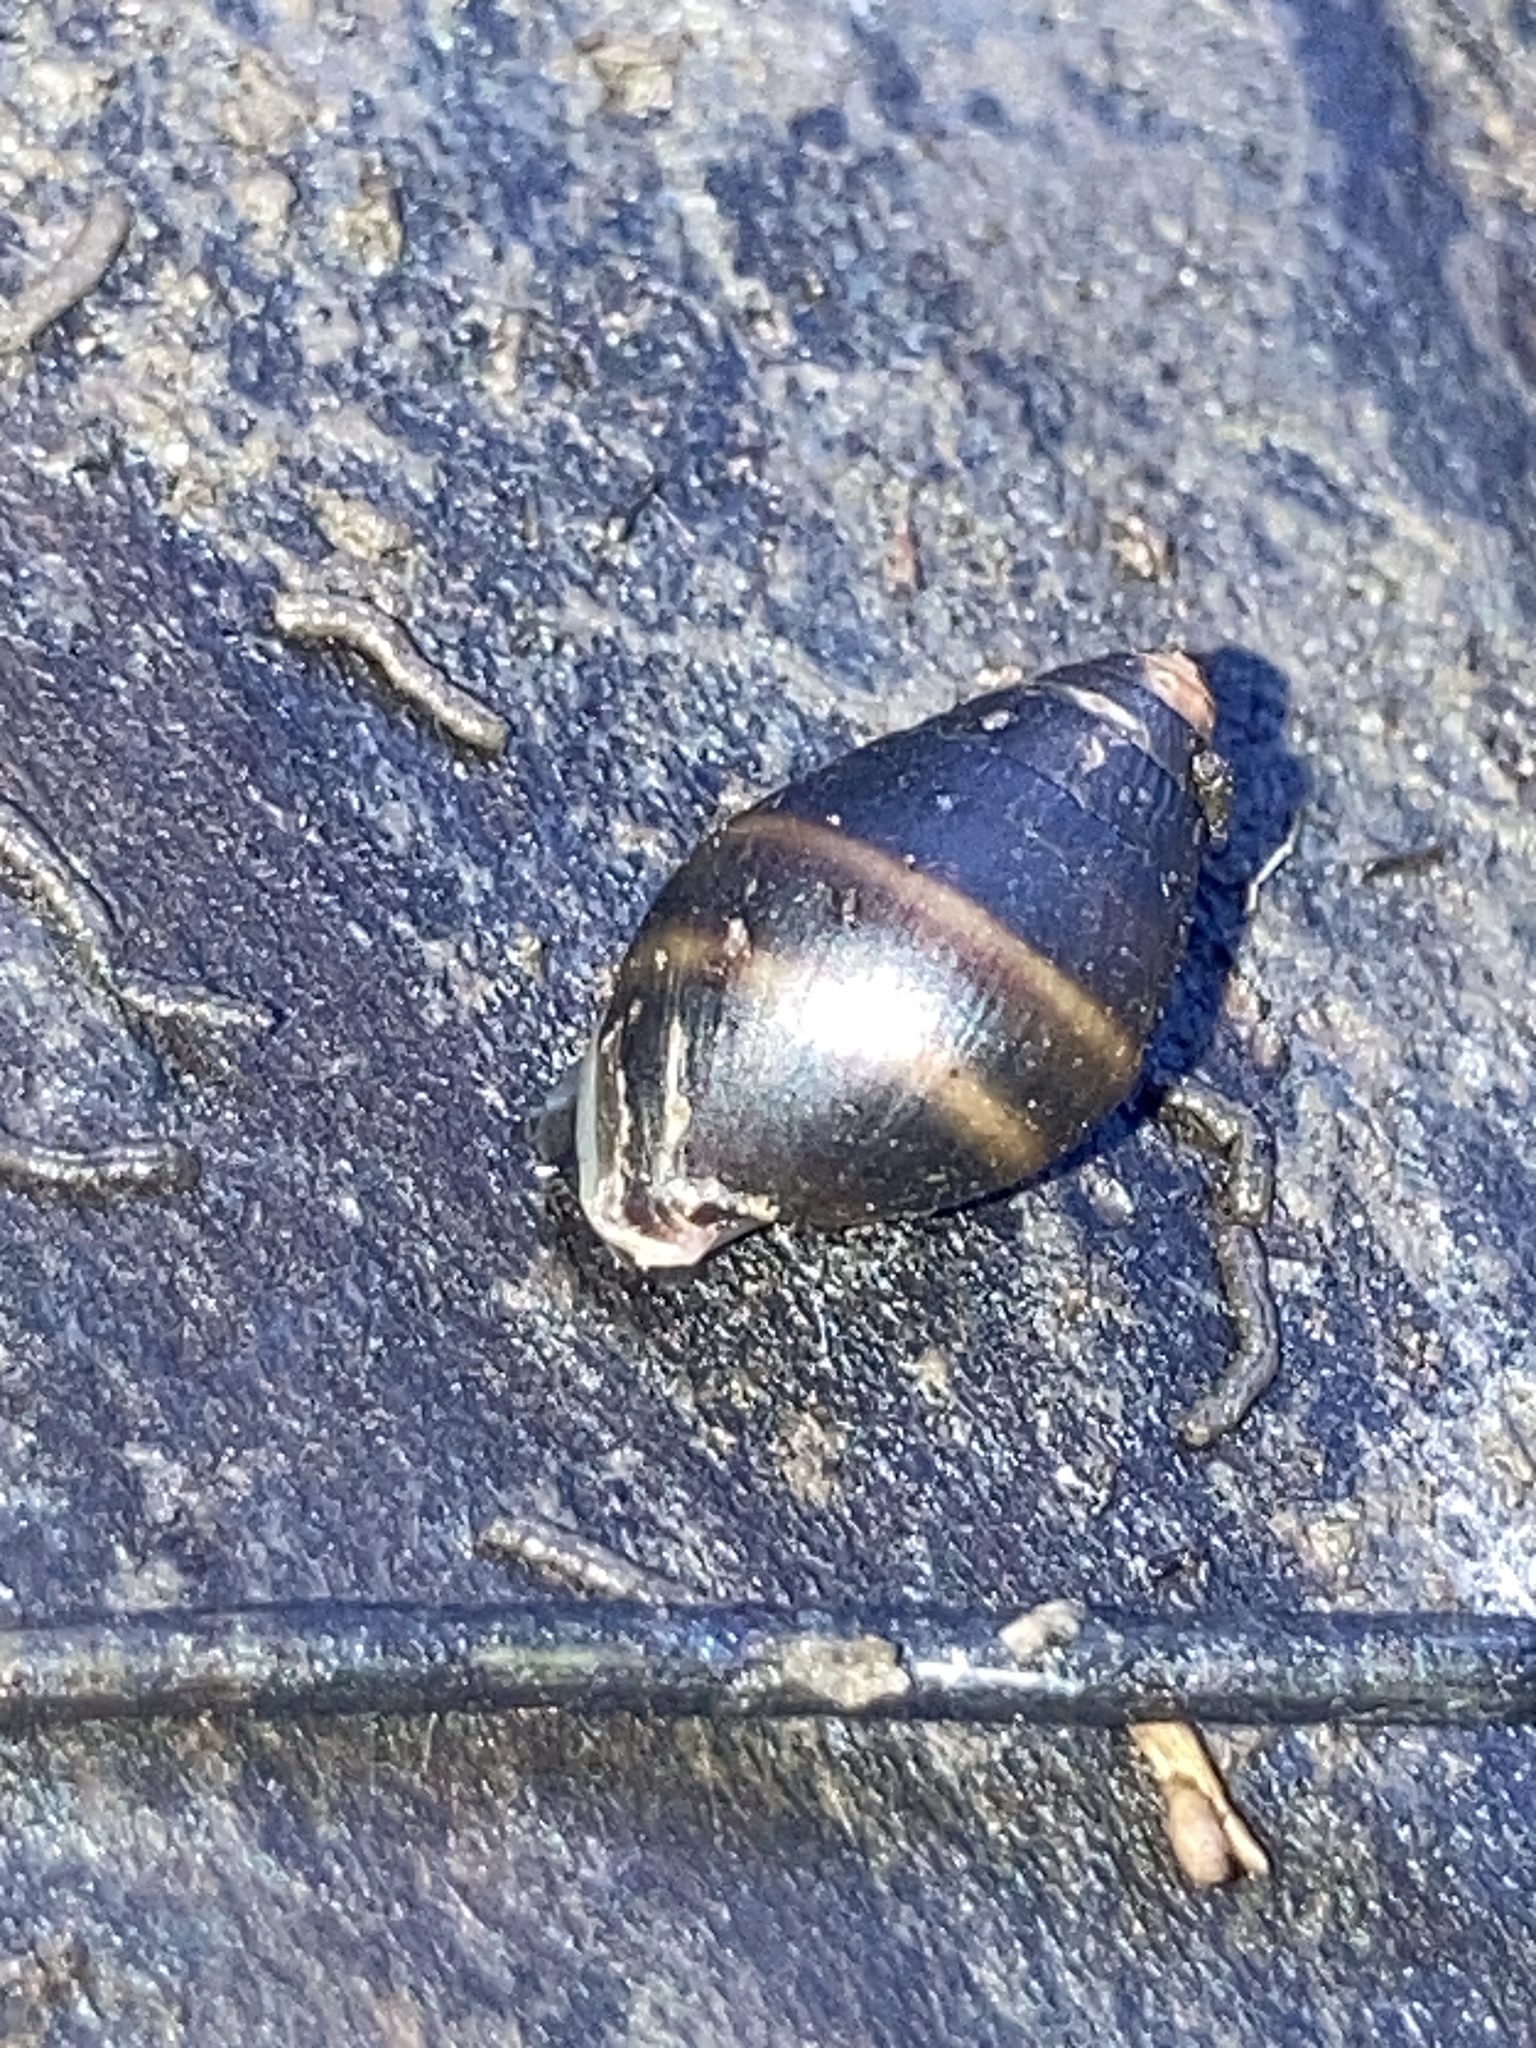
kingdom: Animalia
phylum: Mollusca
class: Gastropoda
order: Ellobiida
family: Ellobiidae
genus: Ophicardelus
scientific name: Ophicardelus ornatus
